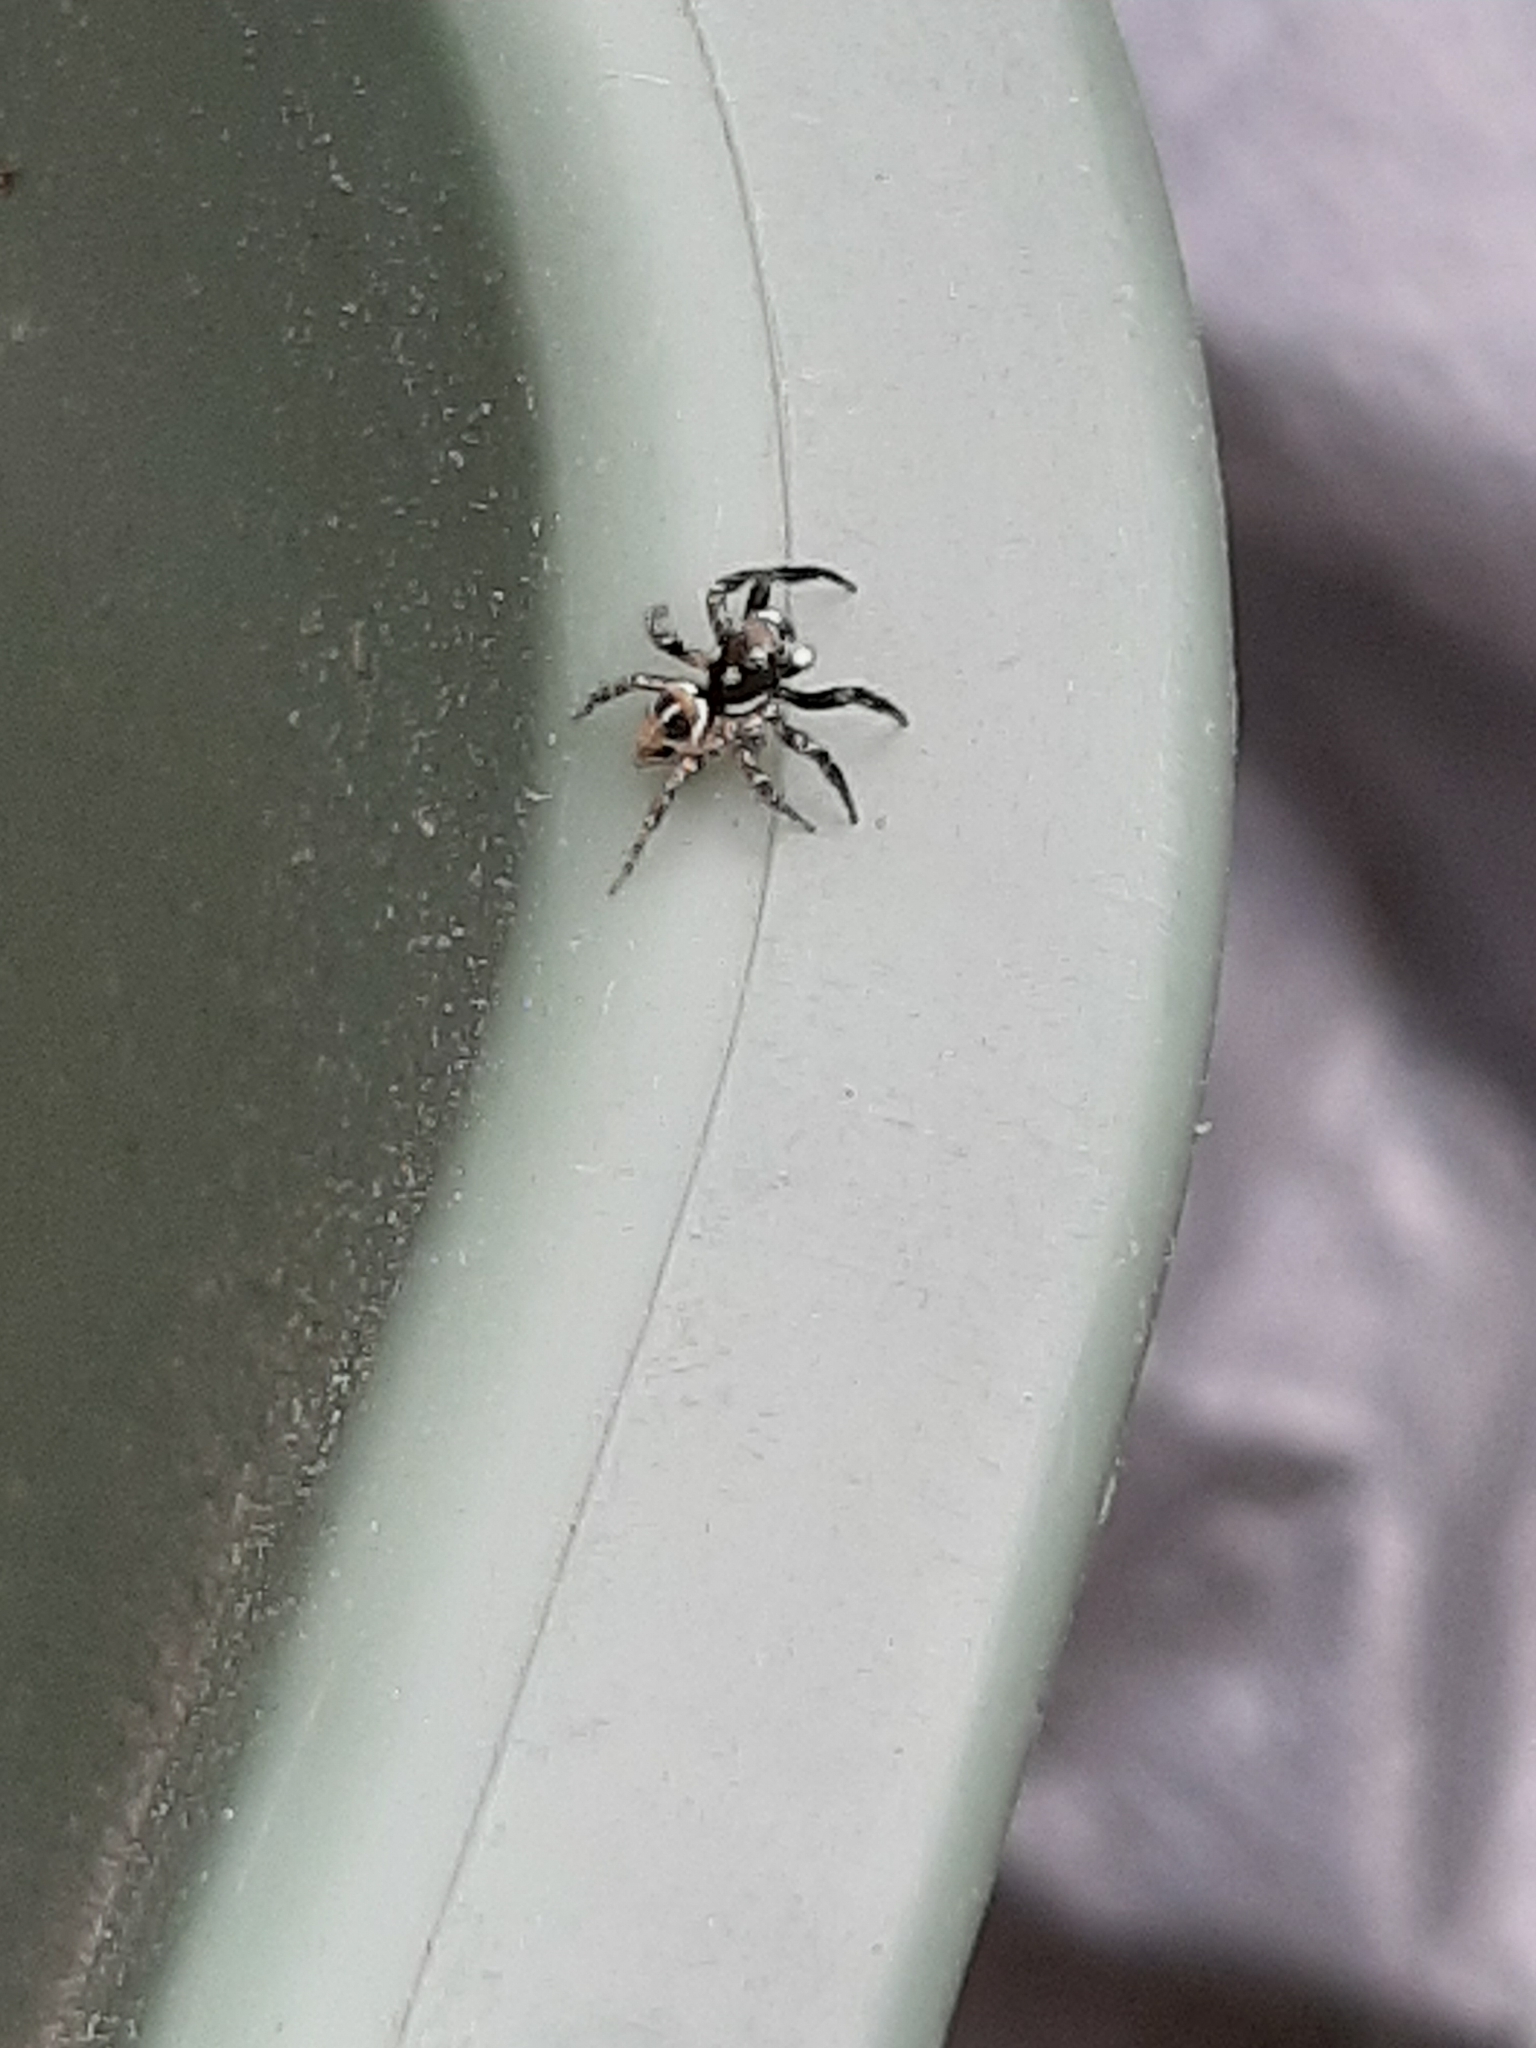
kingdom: Animalia
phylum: Arthropoda
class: Arachnida
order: Araneae
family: Salticidae
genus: Anasaitis
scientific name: Anasaitis canosa
